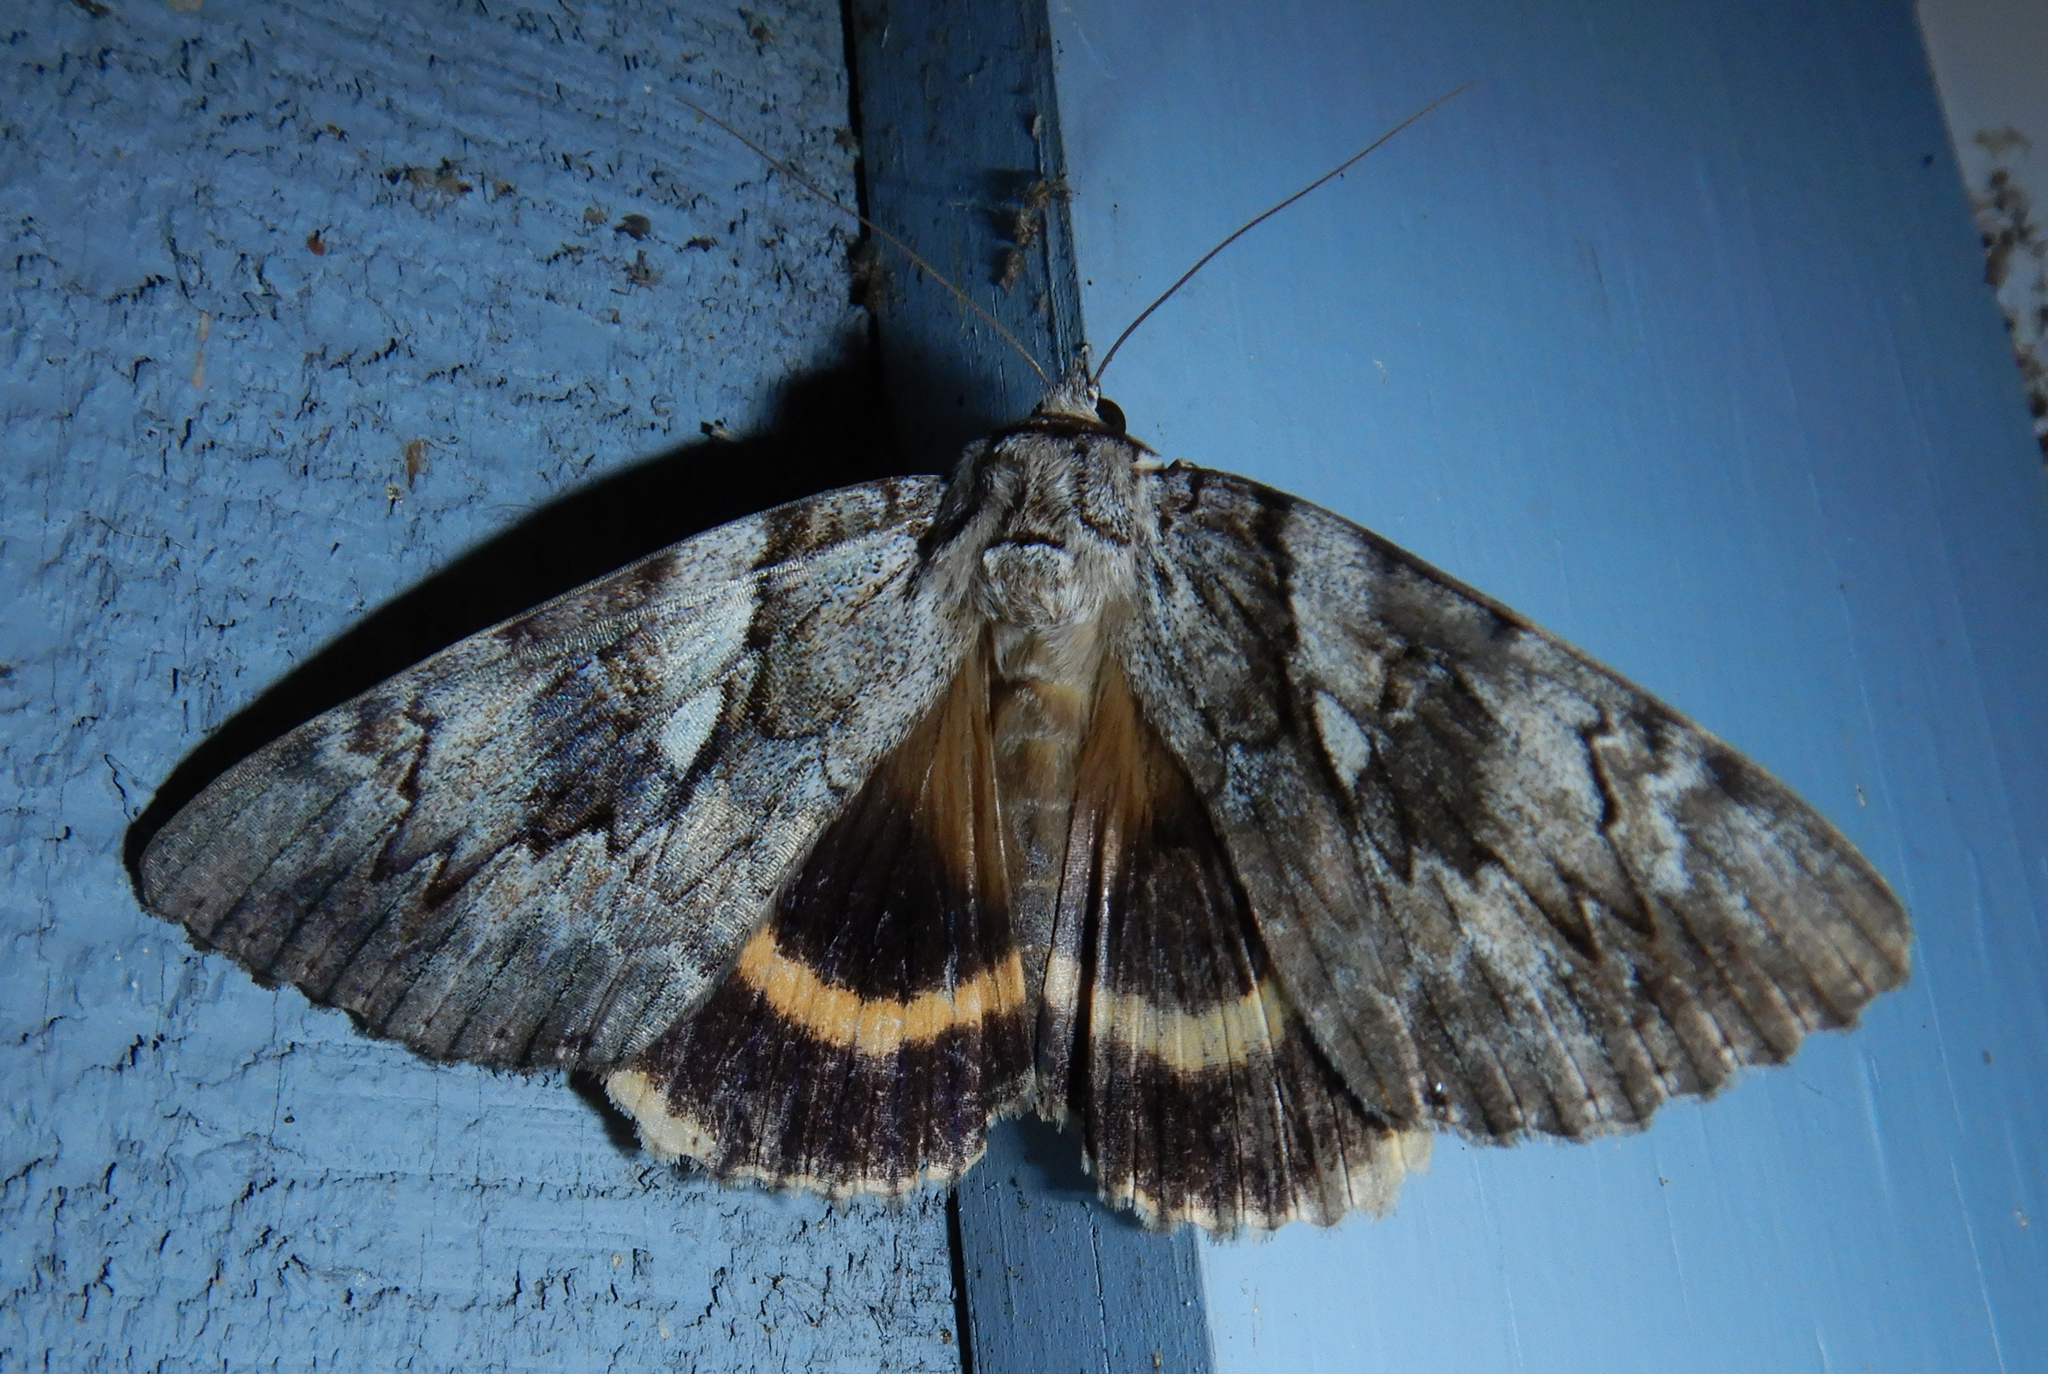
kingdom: Animalia
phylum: Arthropoda
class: Insecta
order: Lepidoptera
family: Erebidae
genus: Catocala
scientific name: Catocala cerogama
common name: Yellow banded underwing
